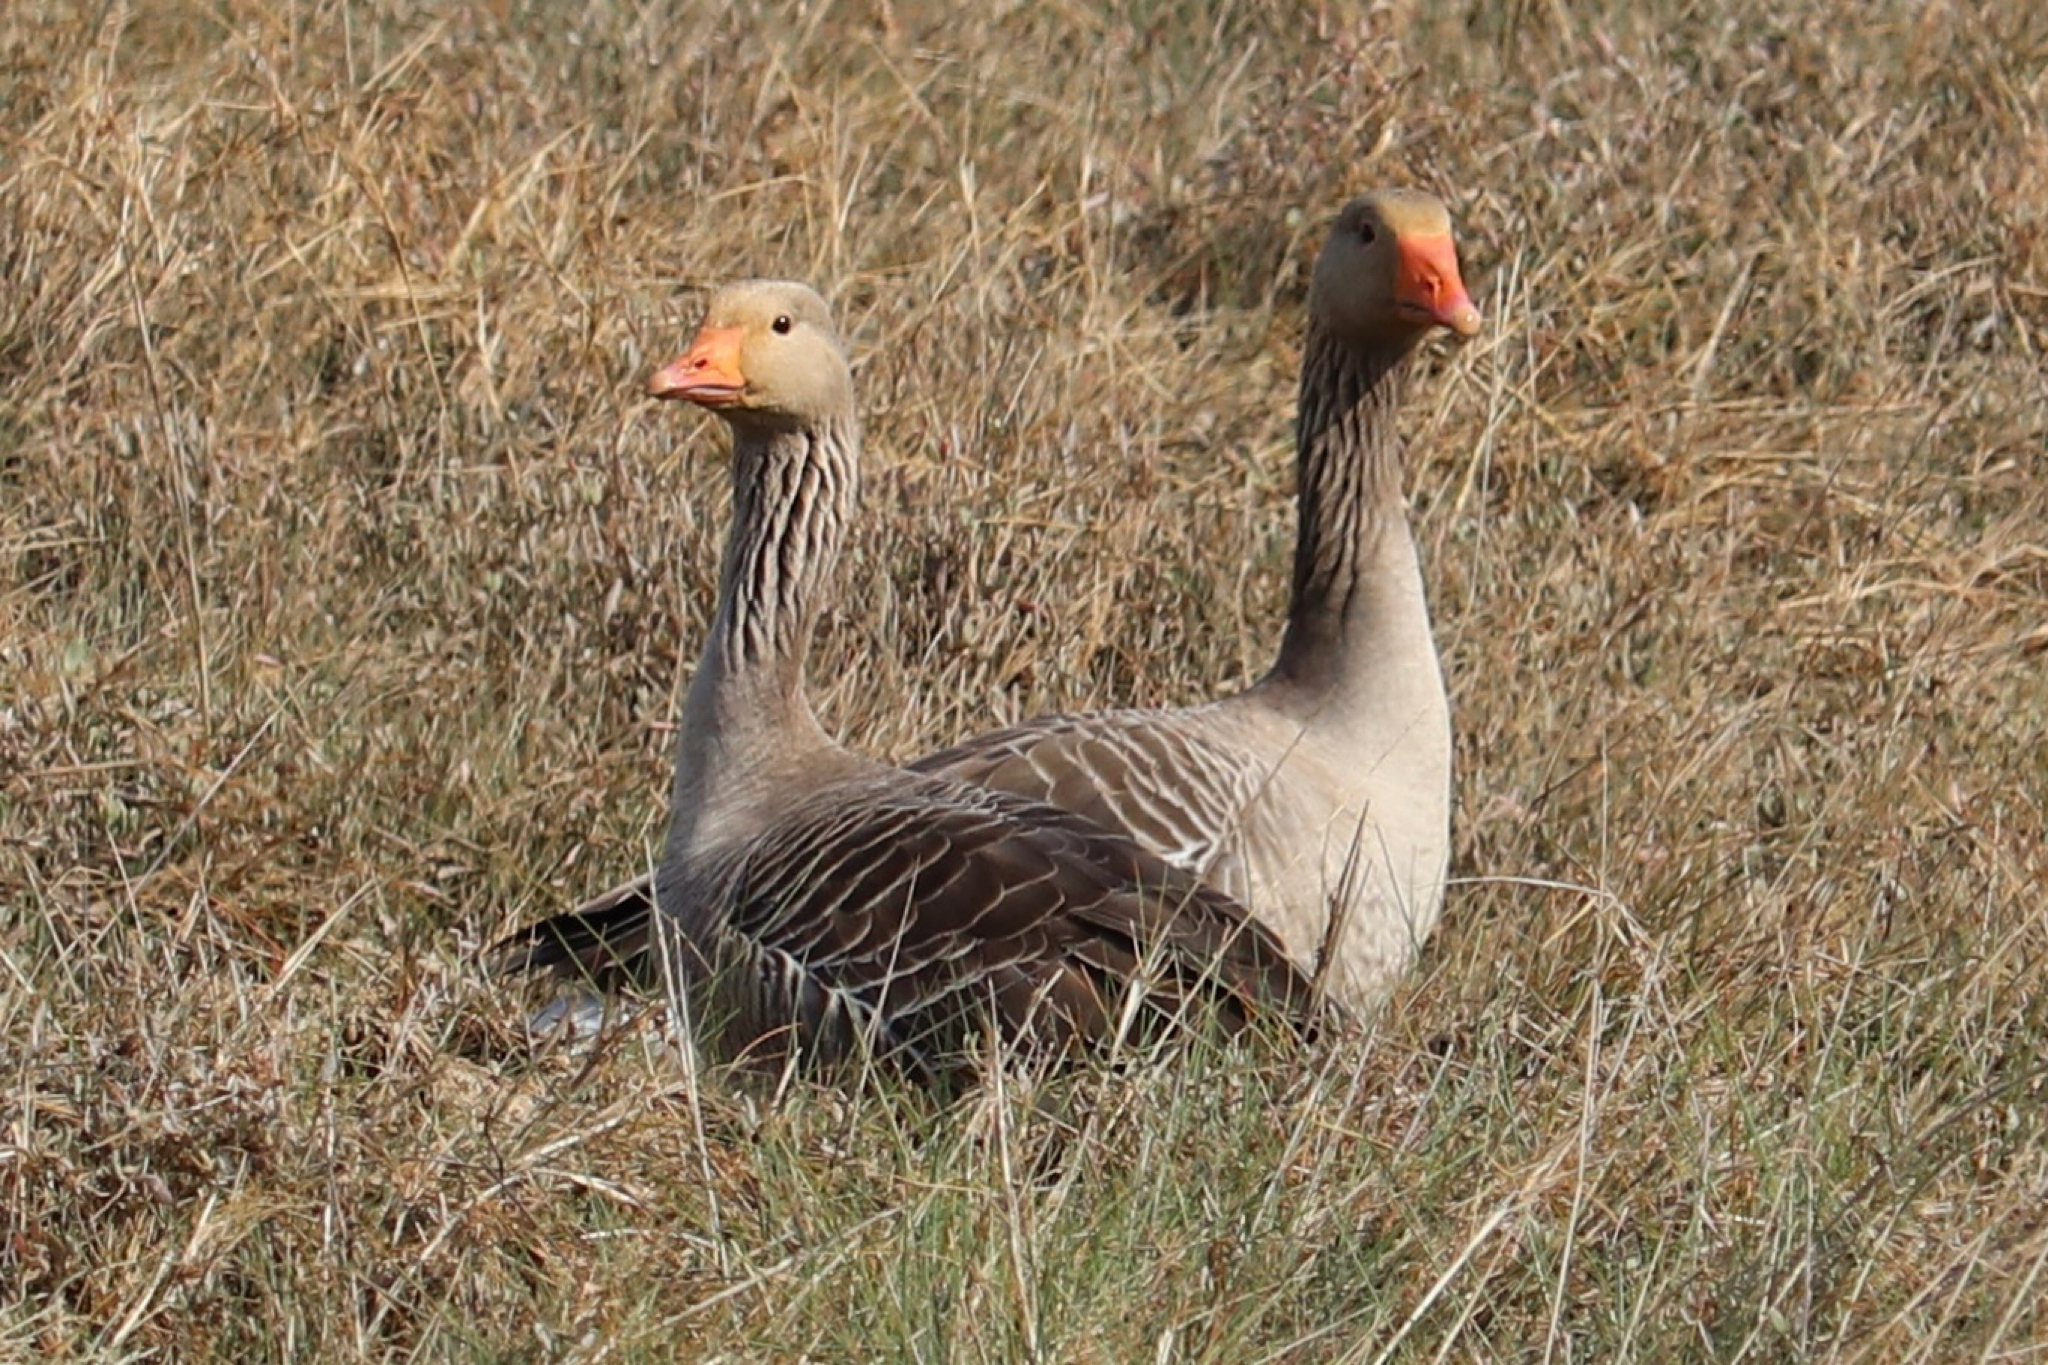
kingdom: Animalia
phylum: Chordata
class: Aves
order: Anseriformes
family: Anatidae
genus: Anser
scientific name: Anser anser
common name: Greylag goose
